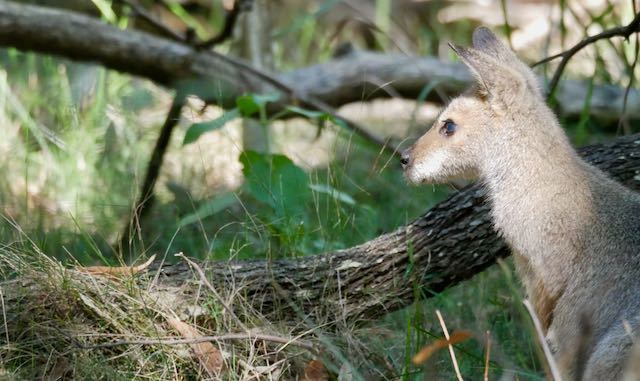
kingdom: Animalia
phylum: Chordata
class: Mammalia
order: Diprotodontia
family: Macropodidae
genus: Notamacropus
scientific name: Notamacropus rufogriseus
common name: Red-necked wallaby
